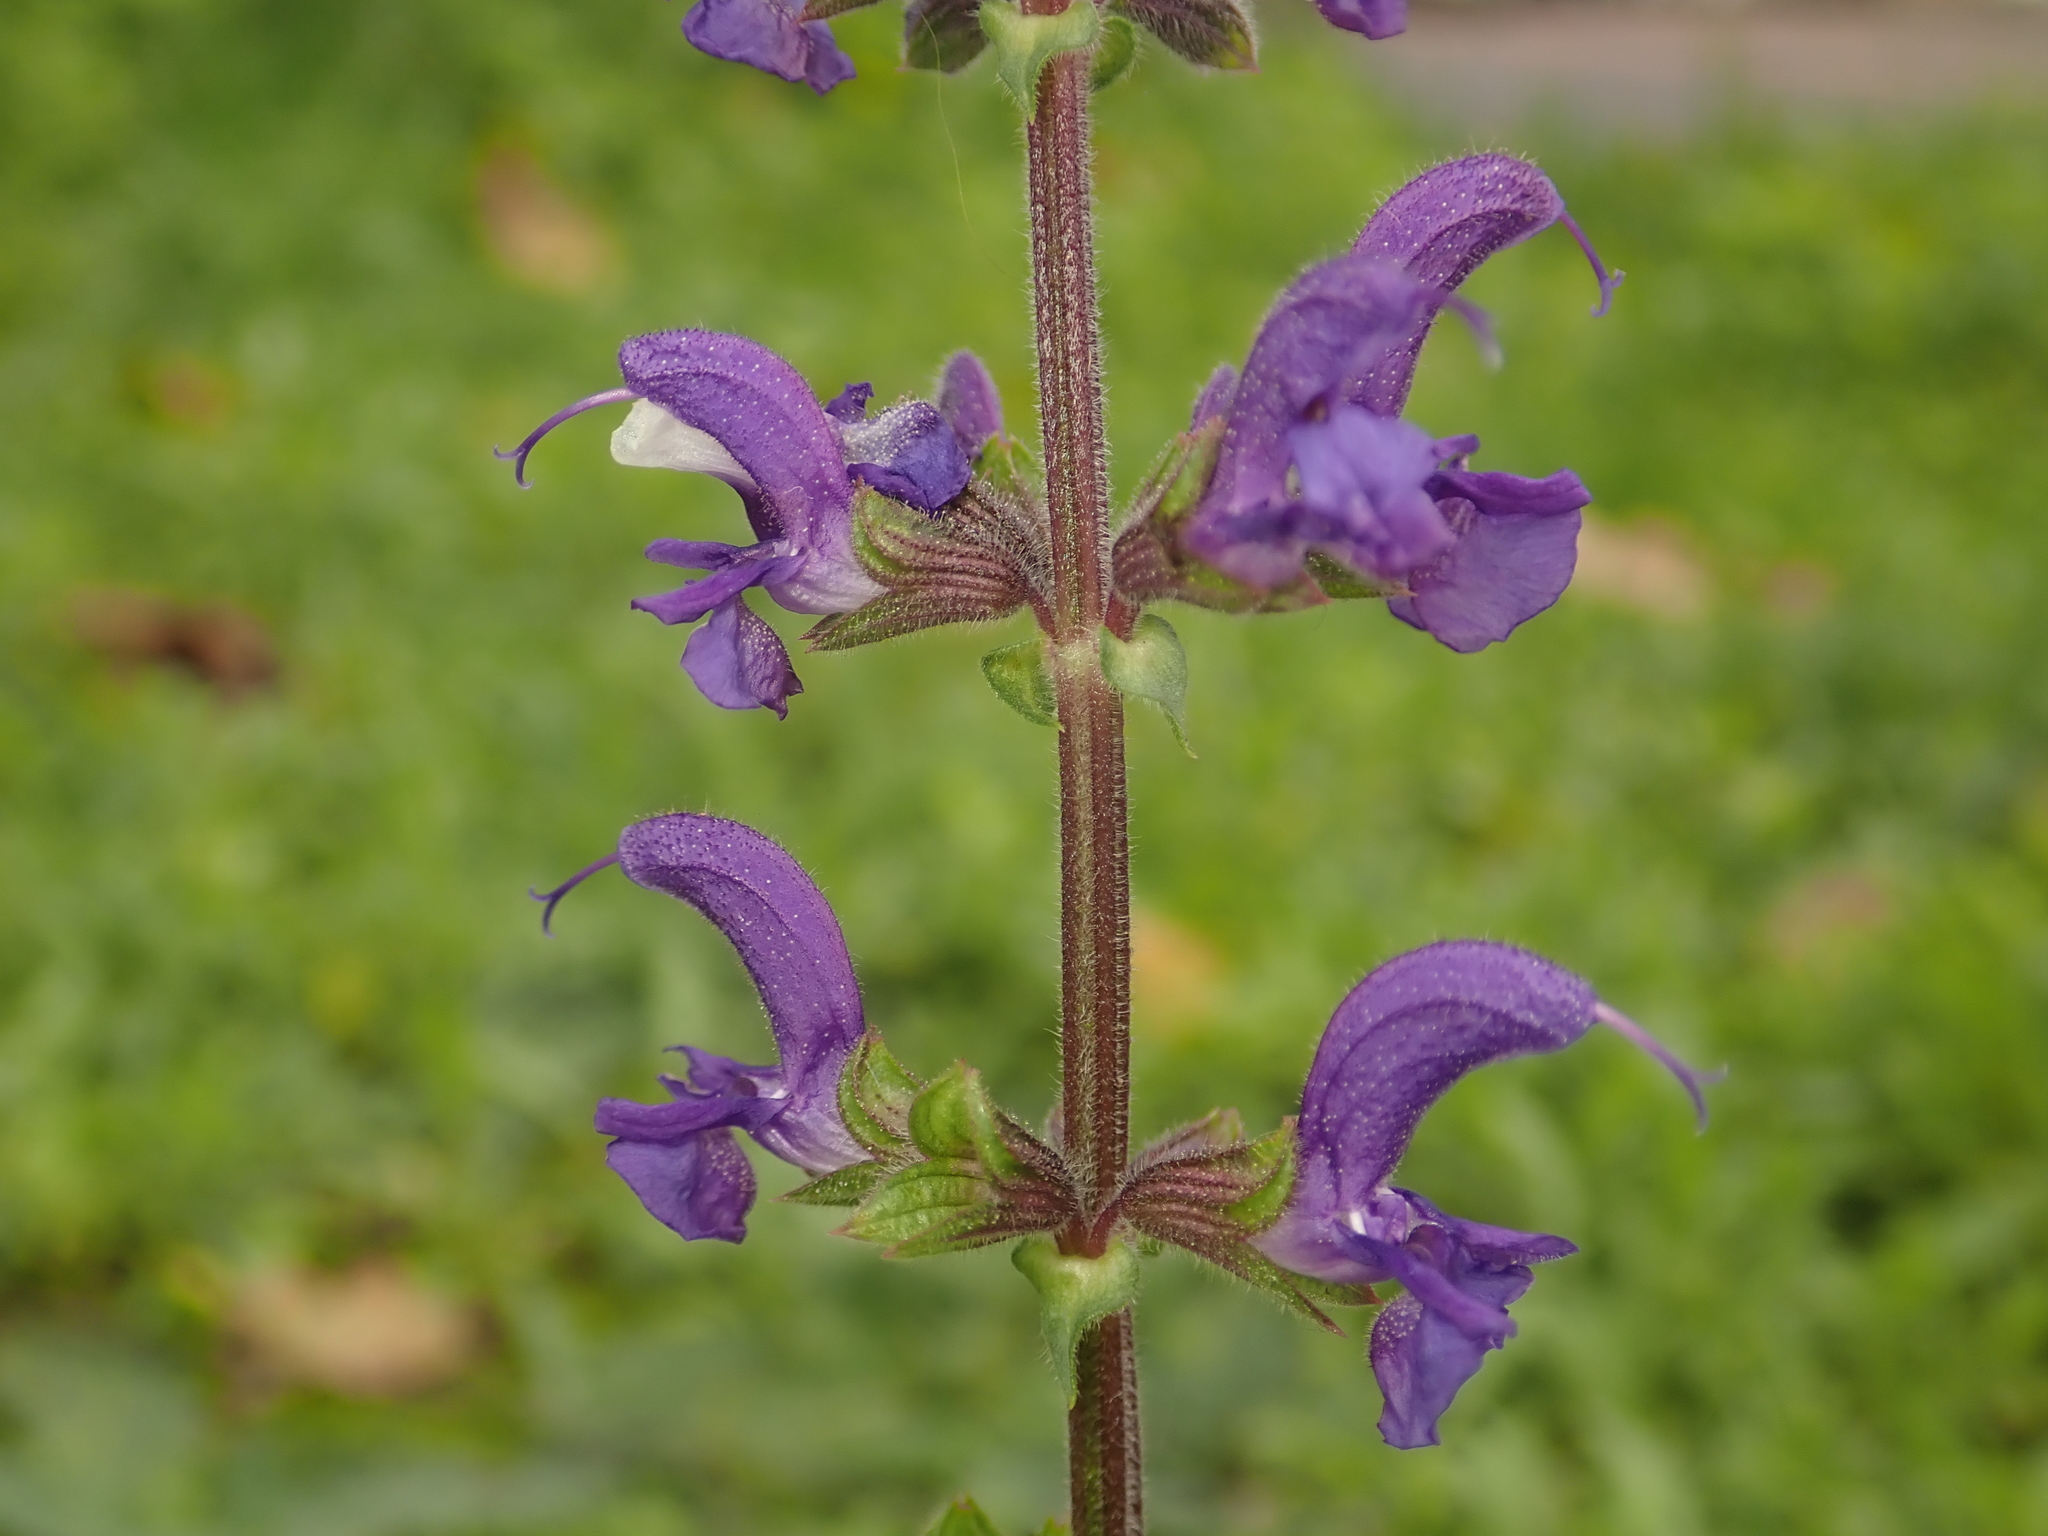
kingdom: Plantae
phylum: Tracheophyta
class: Magnoliopsida
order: Lamiales
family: Lamiaceae
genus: Salvia
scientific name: Salvia pratensis
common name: Meadow sage
